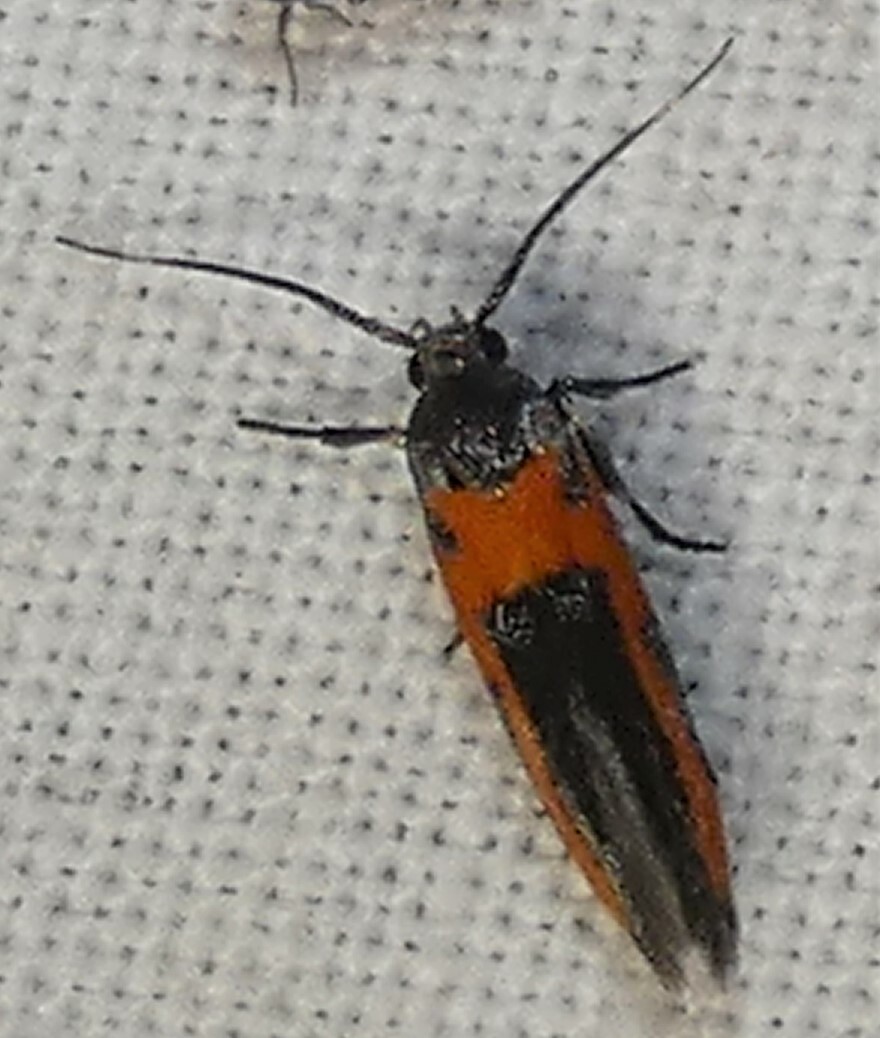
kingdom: Animalia
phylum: Arthropoda
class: Insecta
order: Lepidoptera
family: Cosmopterigidae
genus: Euclemensia
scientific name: Euclemensia bassettella
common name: Kermes scale moth
